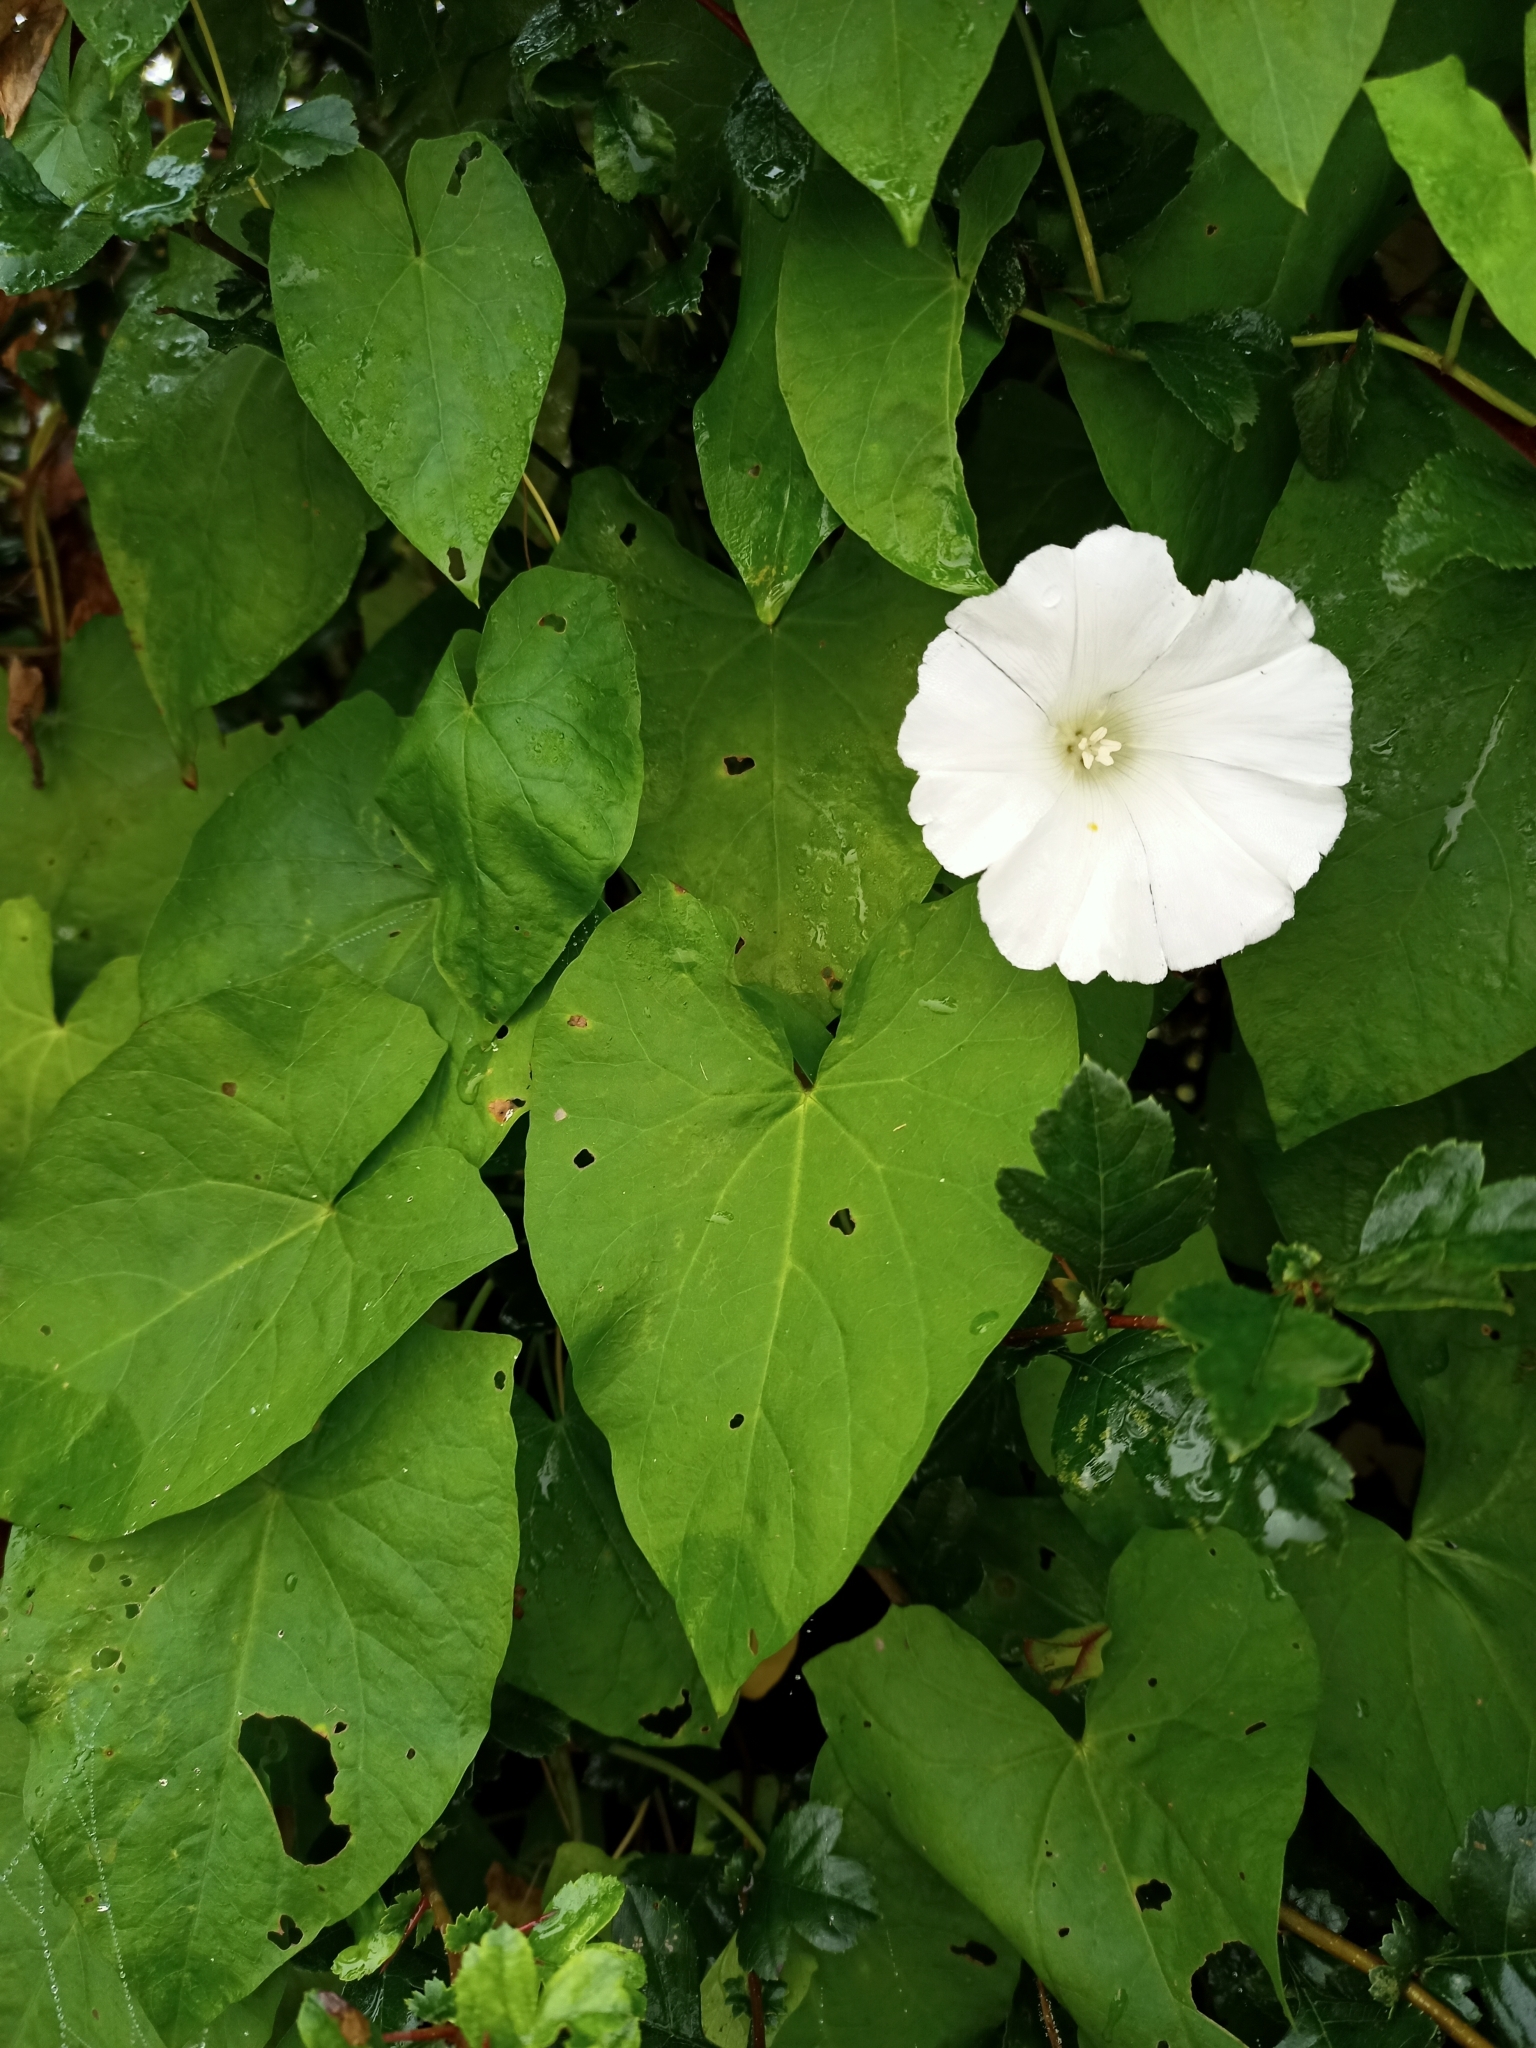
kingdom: Plantae
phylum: Tracheophyta
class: Magnoliopsida
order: Solanales
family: Convolvulaceae
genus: Calystegia
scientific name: Calystegia sepium
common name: Hedge bindweed
